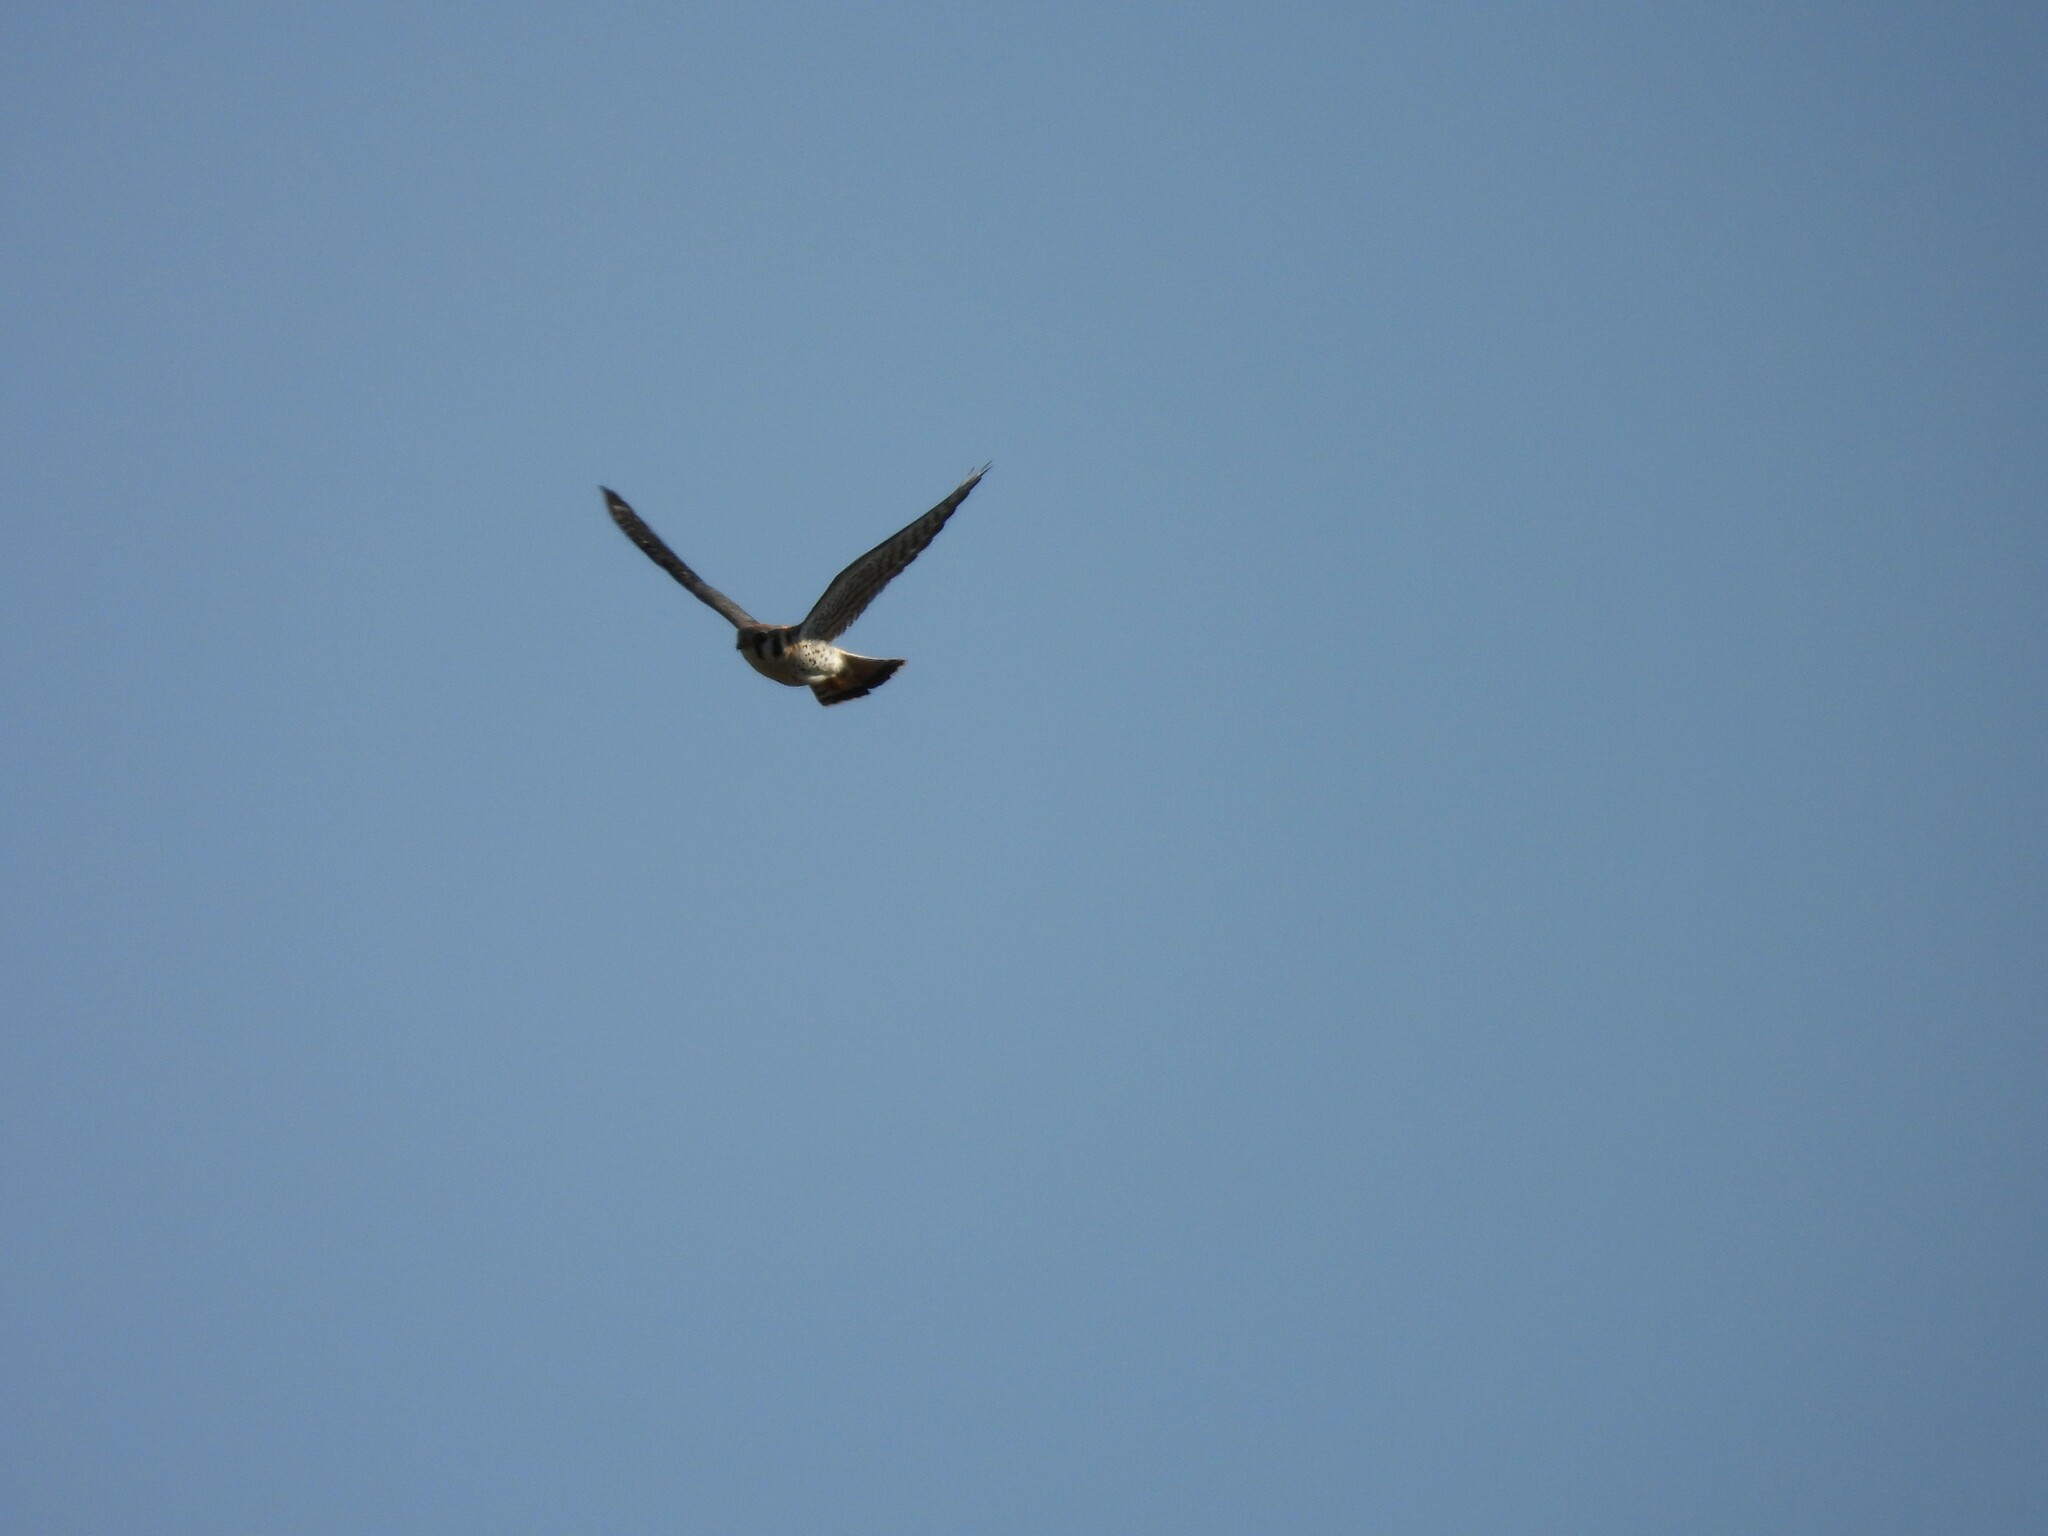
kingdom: Animalia
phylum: Chordata
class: Aves
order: Falconiformes
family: Falconidae
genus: Falco
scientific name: Falco sparverius
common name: American kestrel
